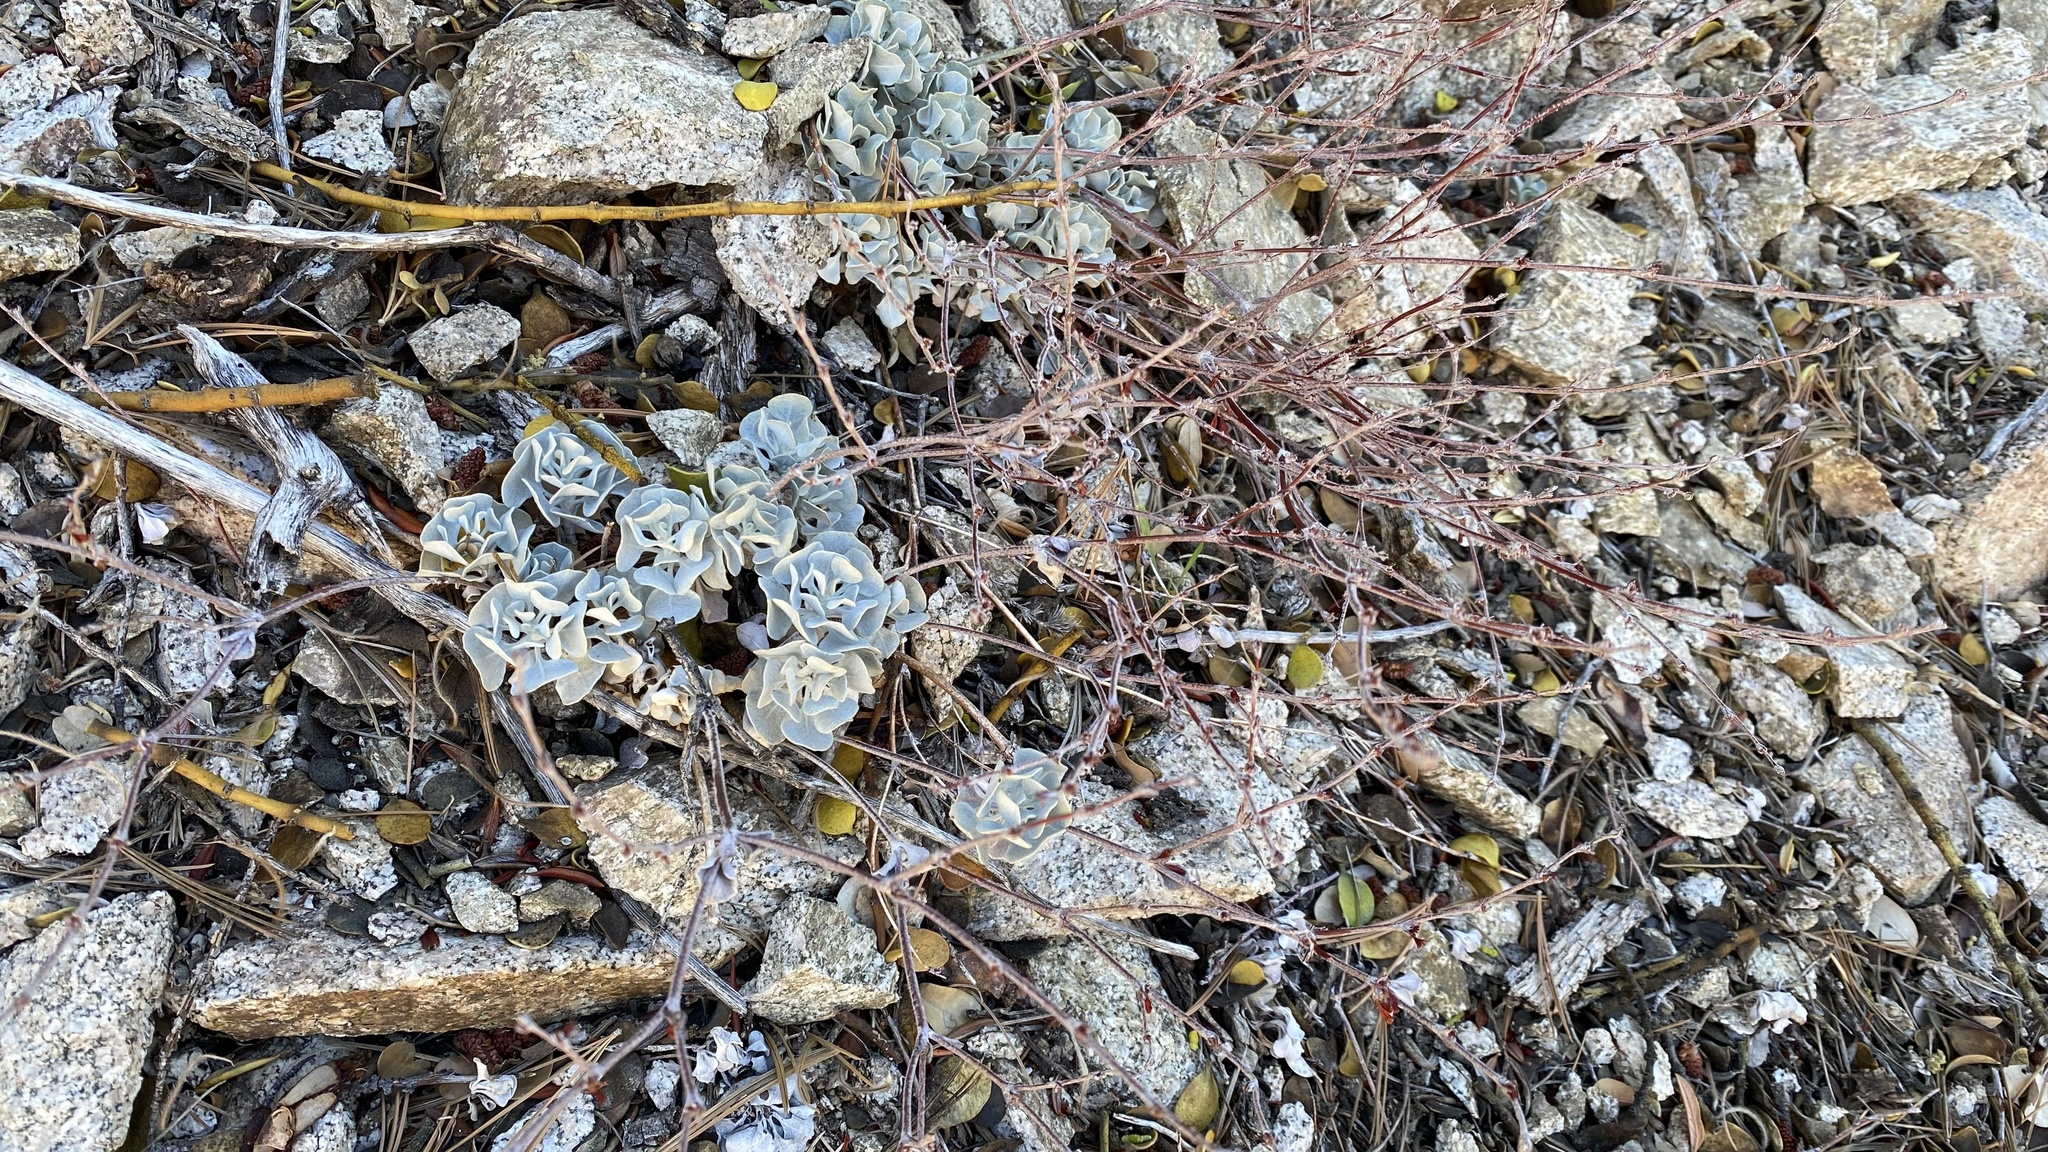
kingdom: Plantae
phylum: Tracheophyta
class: Magnoliopsida
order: Caryophyllales
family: Polygonaceae
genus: Eriogonum
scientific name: Eriogonum saxatile
